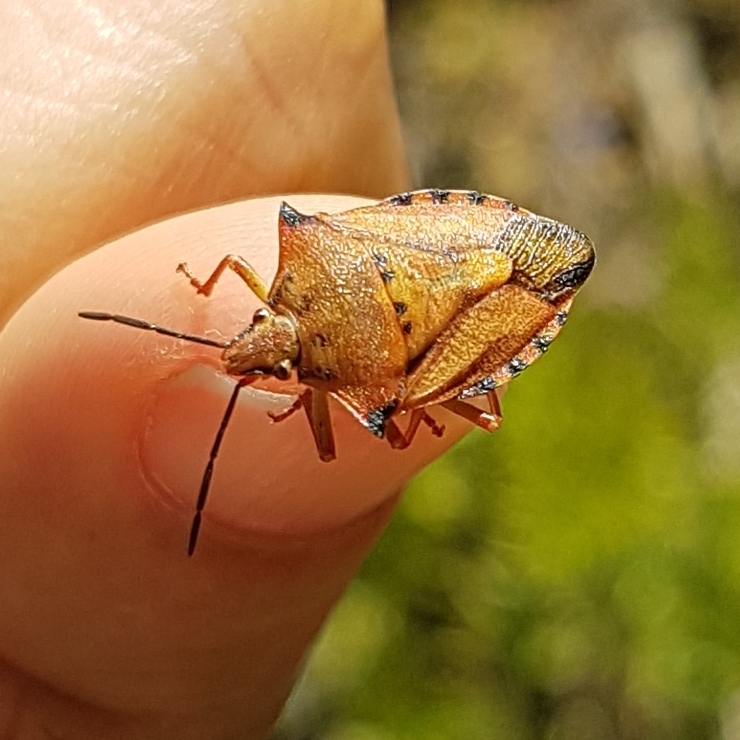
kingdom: Animalia
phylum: Arthropoda
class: Insecta
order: Hemiptera
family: Pentatomidae
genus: Carpocoris
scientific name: Carpocoris mediterraneus
